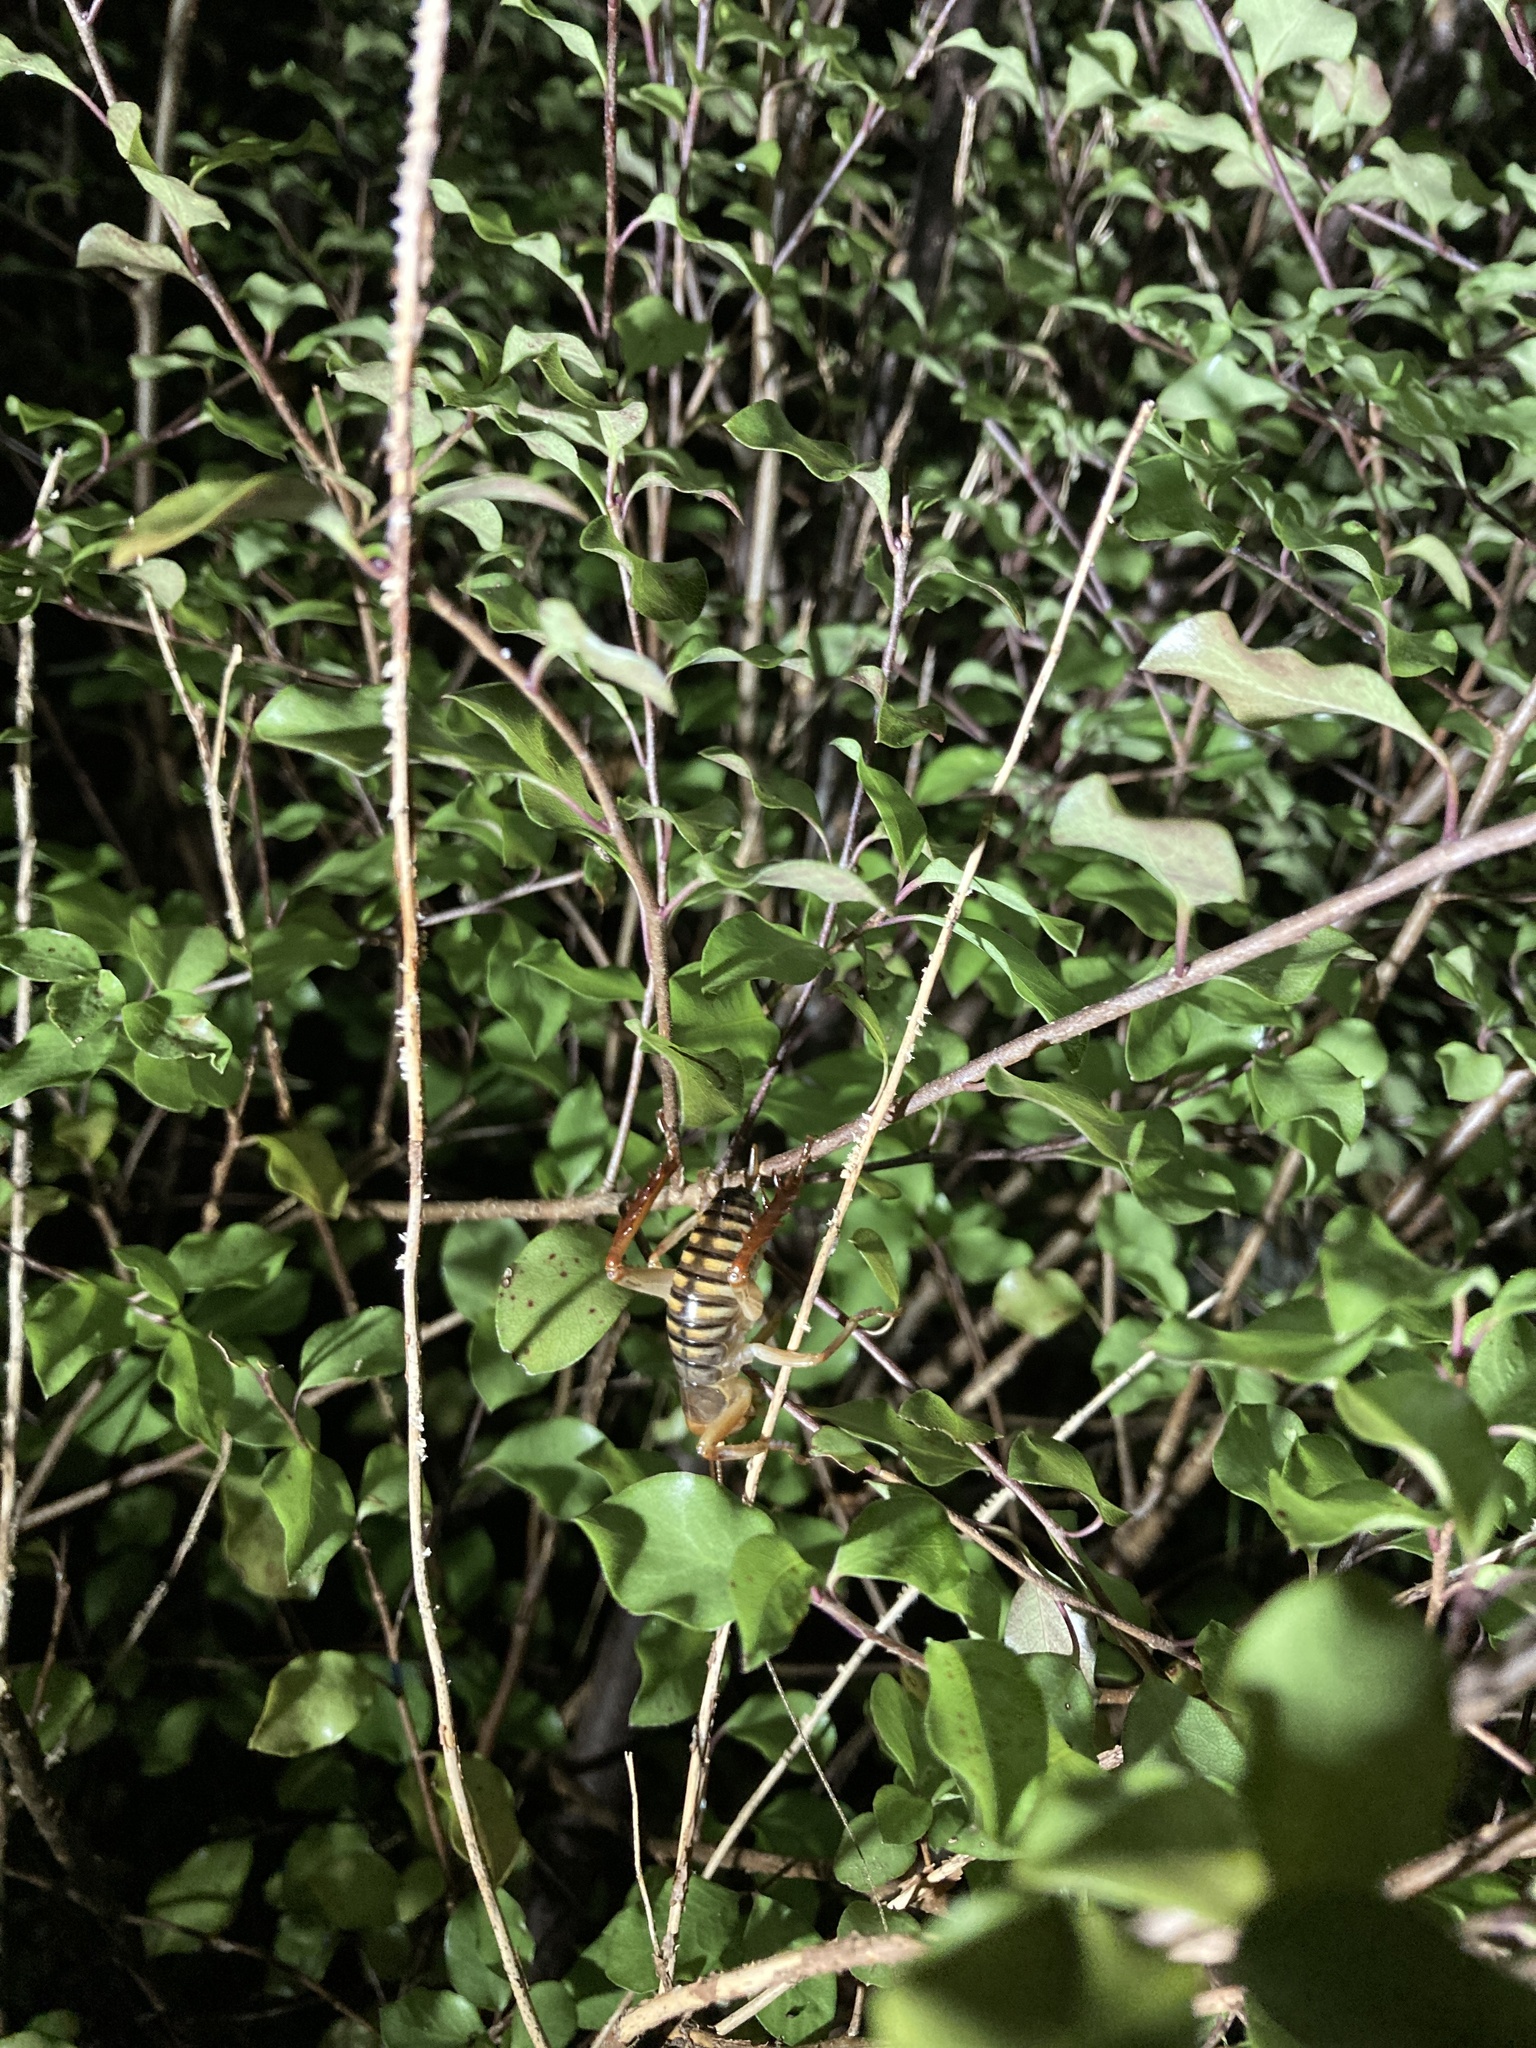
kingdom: Animalia
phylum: Arthropoda
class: Insecta
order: Orthoptera
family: Anostostomatidae
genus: Hemideina
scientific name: Hemideina crassidens
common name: Wellington tree weta
